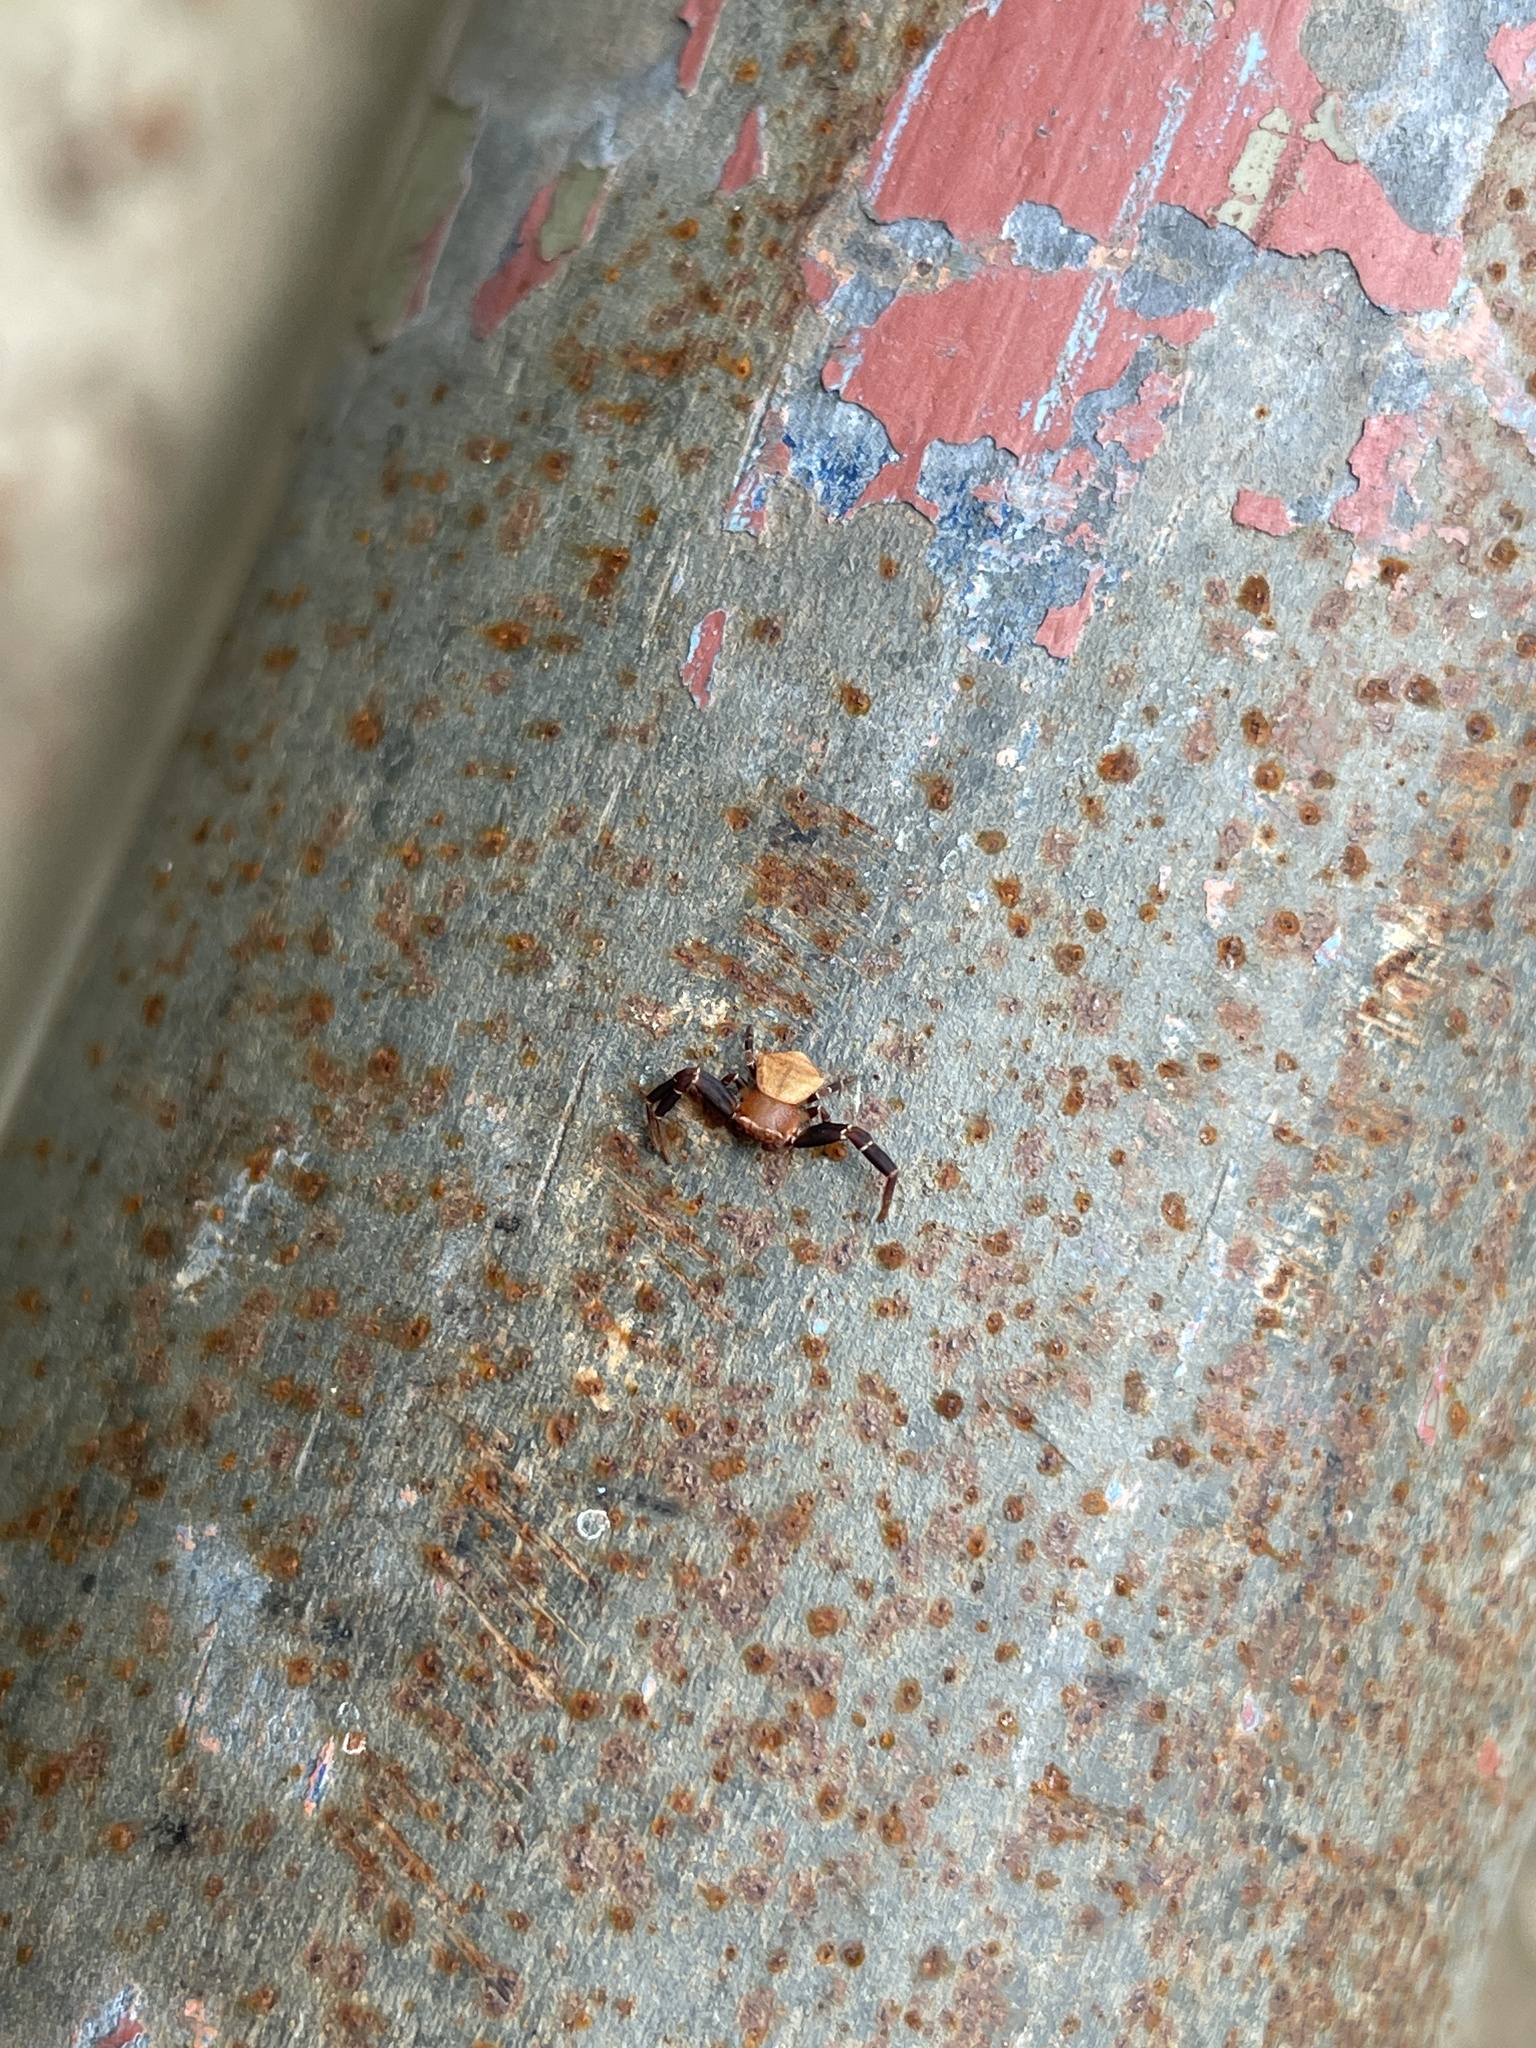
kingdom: Animalia
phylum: Arthropoda
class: Arachnida
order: Araneae
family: Thomisidae
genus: Thomisus
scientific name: Thomisus labefactus
